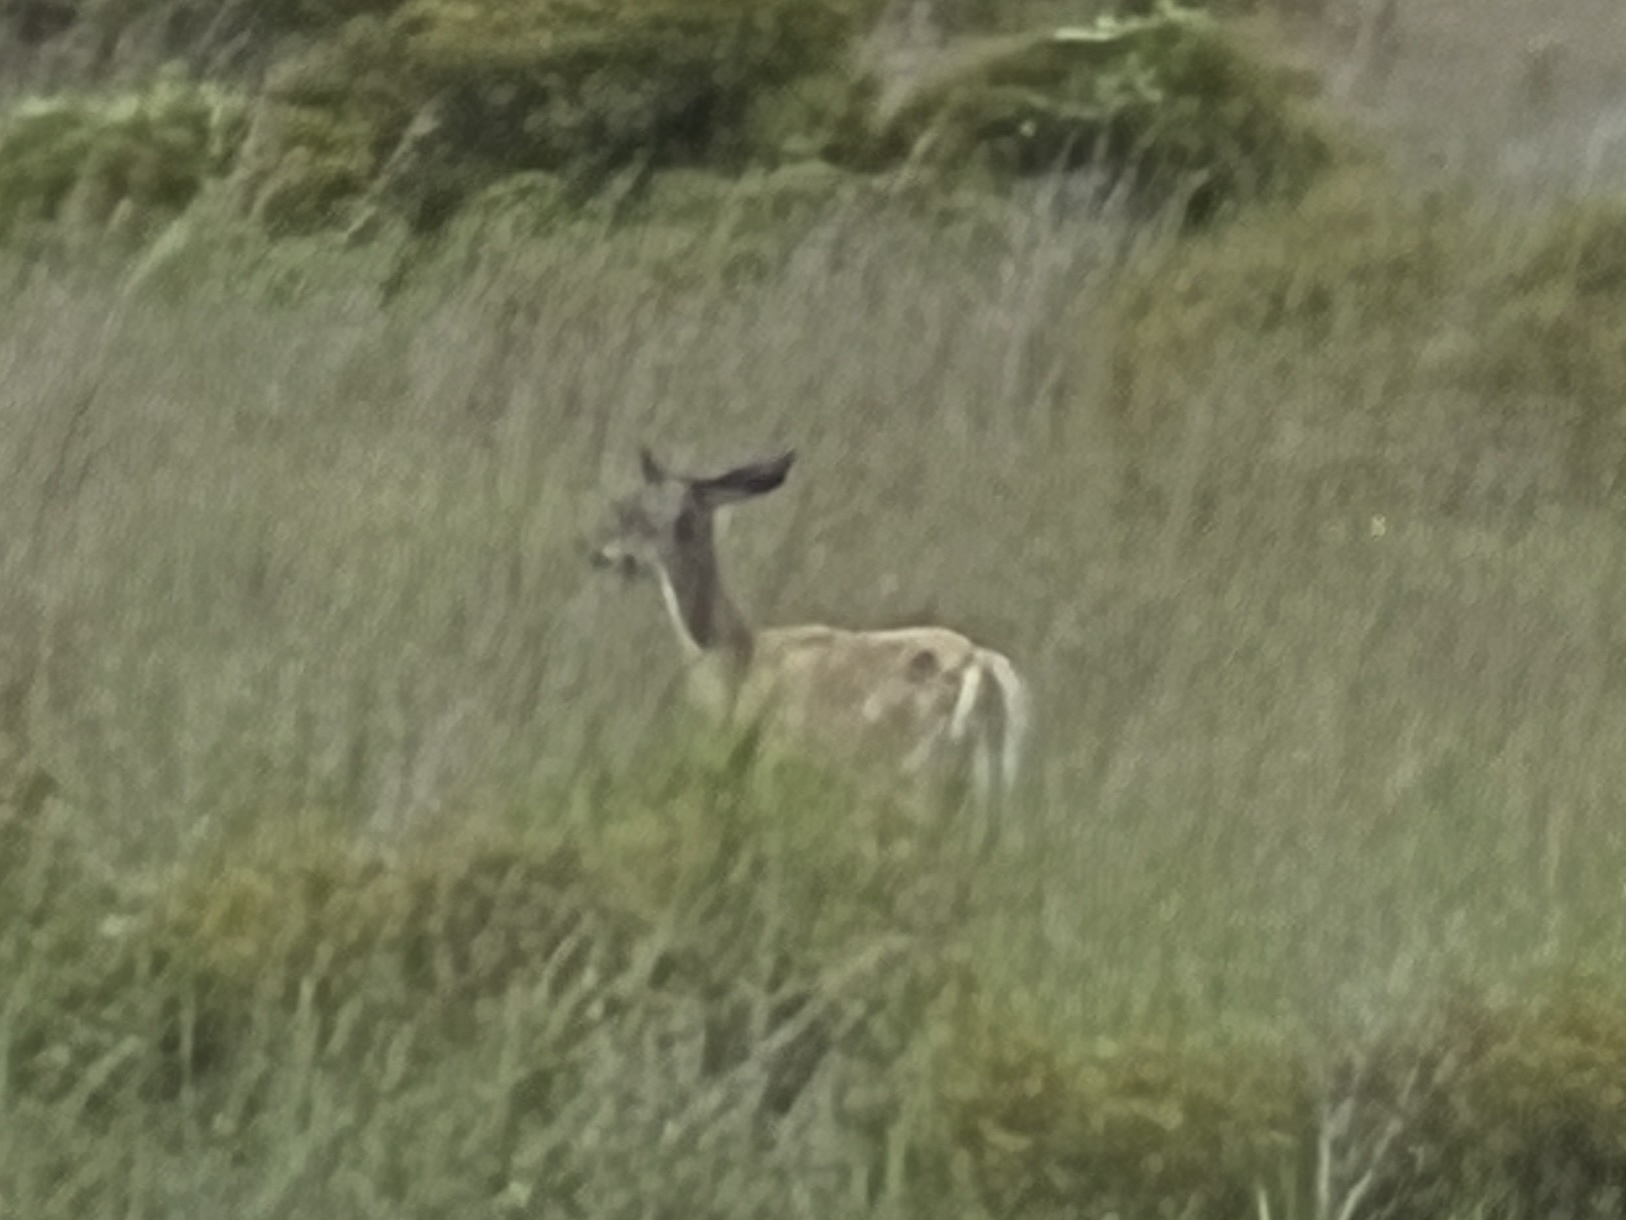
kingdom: Animalia
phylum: Chordata
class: Mammalia
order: Artiodactyla
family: Cervidae
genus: Odocoileus
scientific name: Odocoileus virginianus
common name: White-tailed deer
